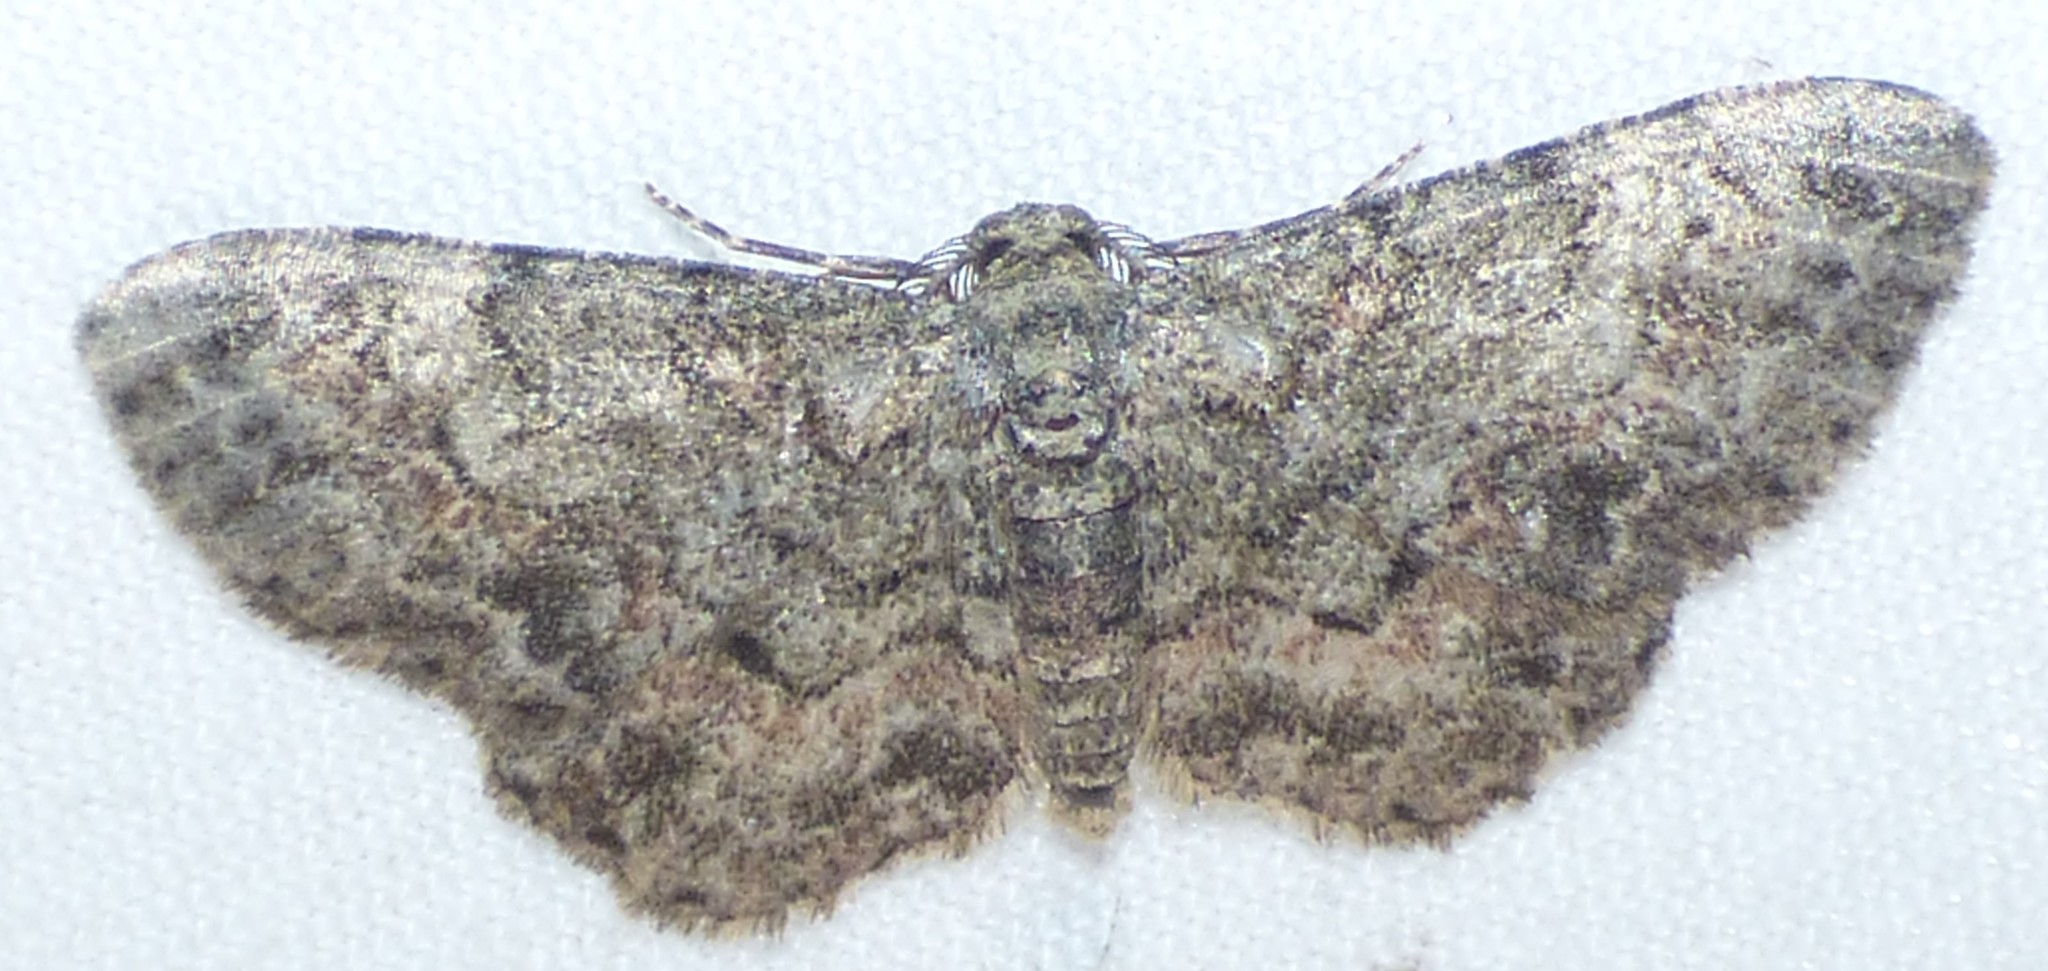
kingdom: Animalia
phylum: Arthropoda
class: Insecta
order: Lepidoptera
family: Geometridae
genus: Glenoides
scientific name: Glenoides texanaria
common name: Texas gray
